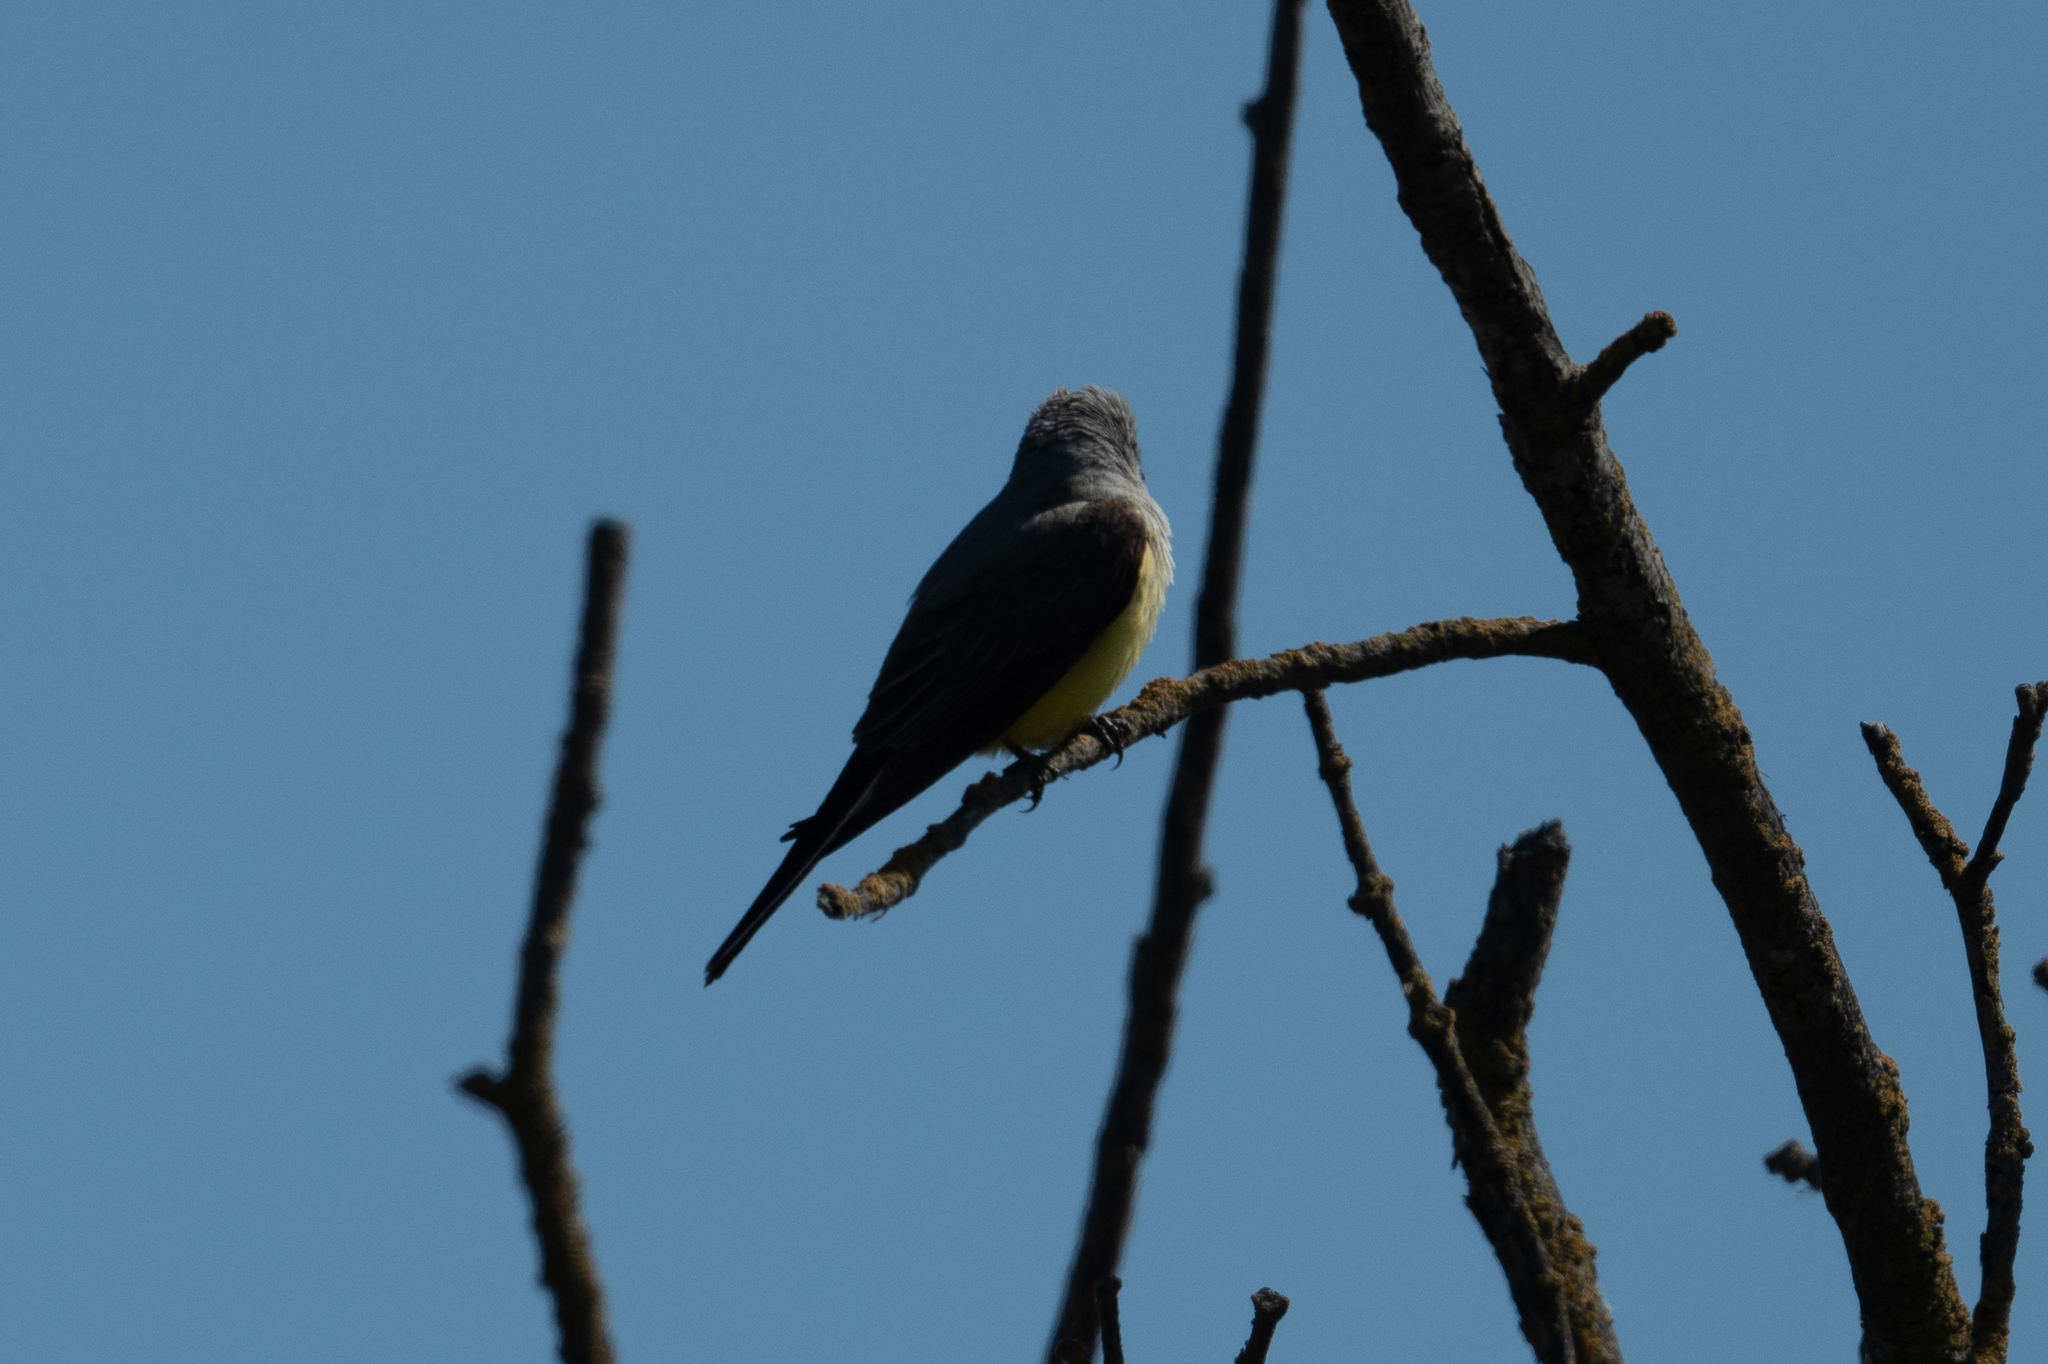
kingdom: Animalia
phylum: Chordata
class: Aves
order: Passeriformes
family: Tyrannidae
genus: Tyrannus
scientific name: Tyrannus verticalis
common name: Western kingbird
